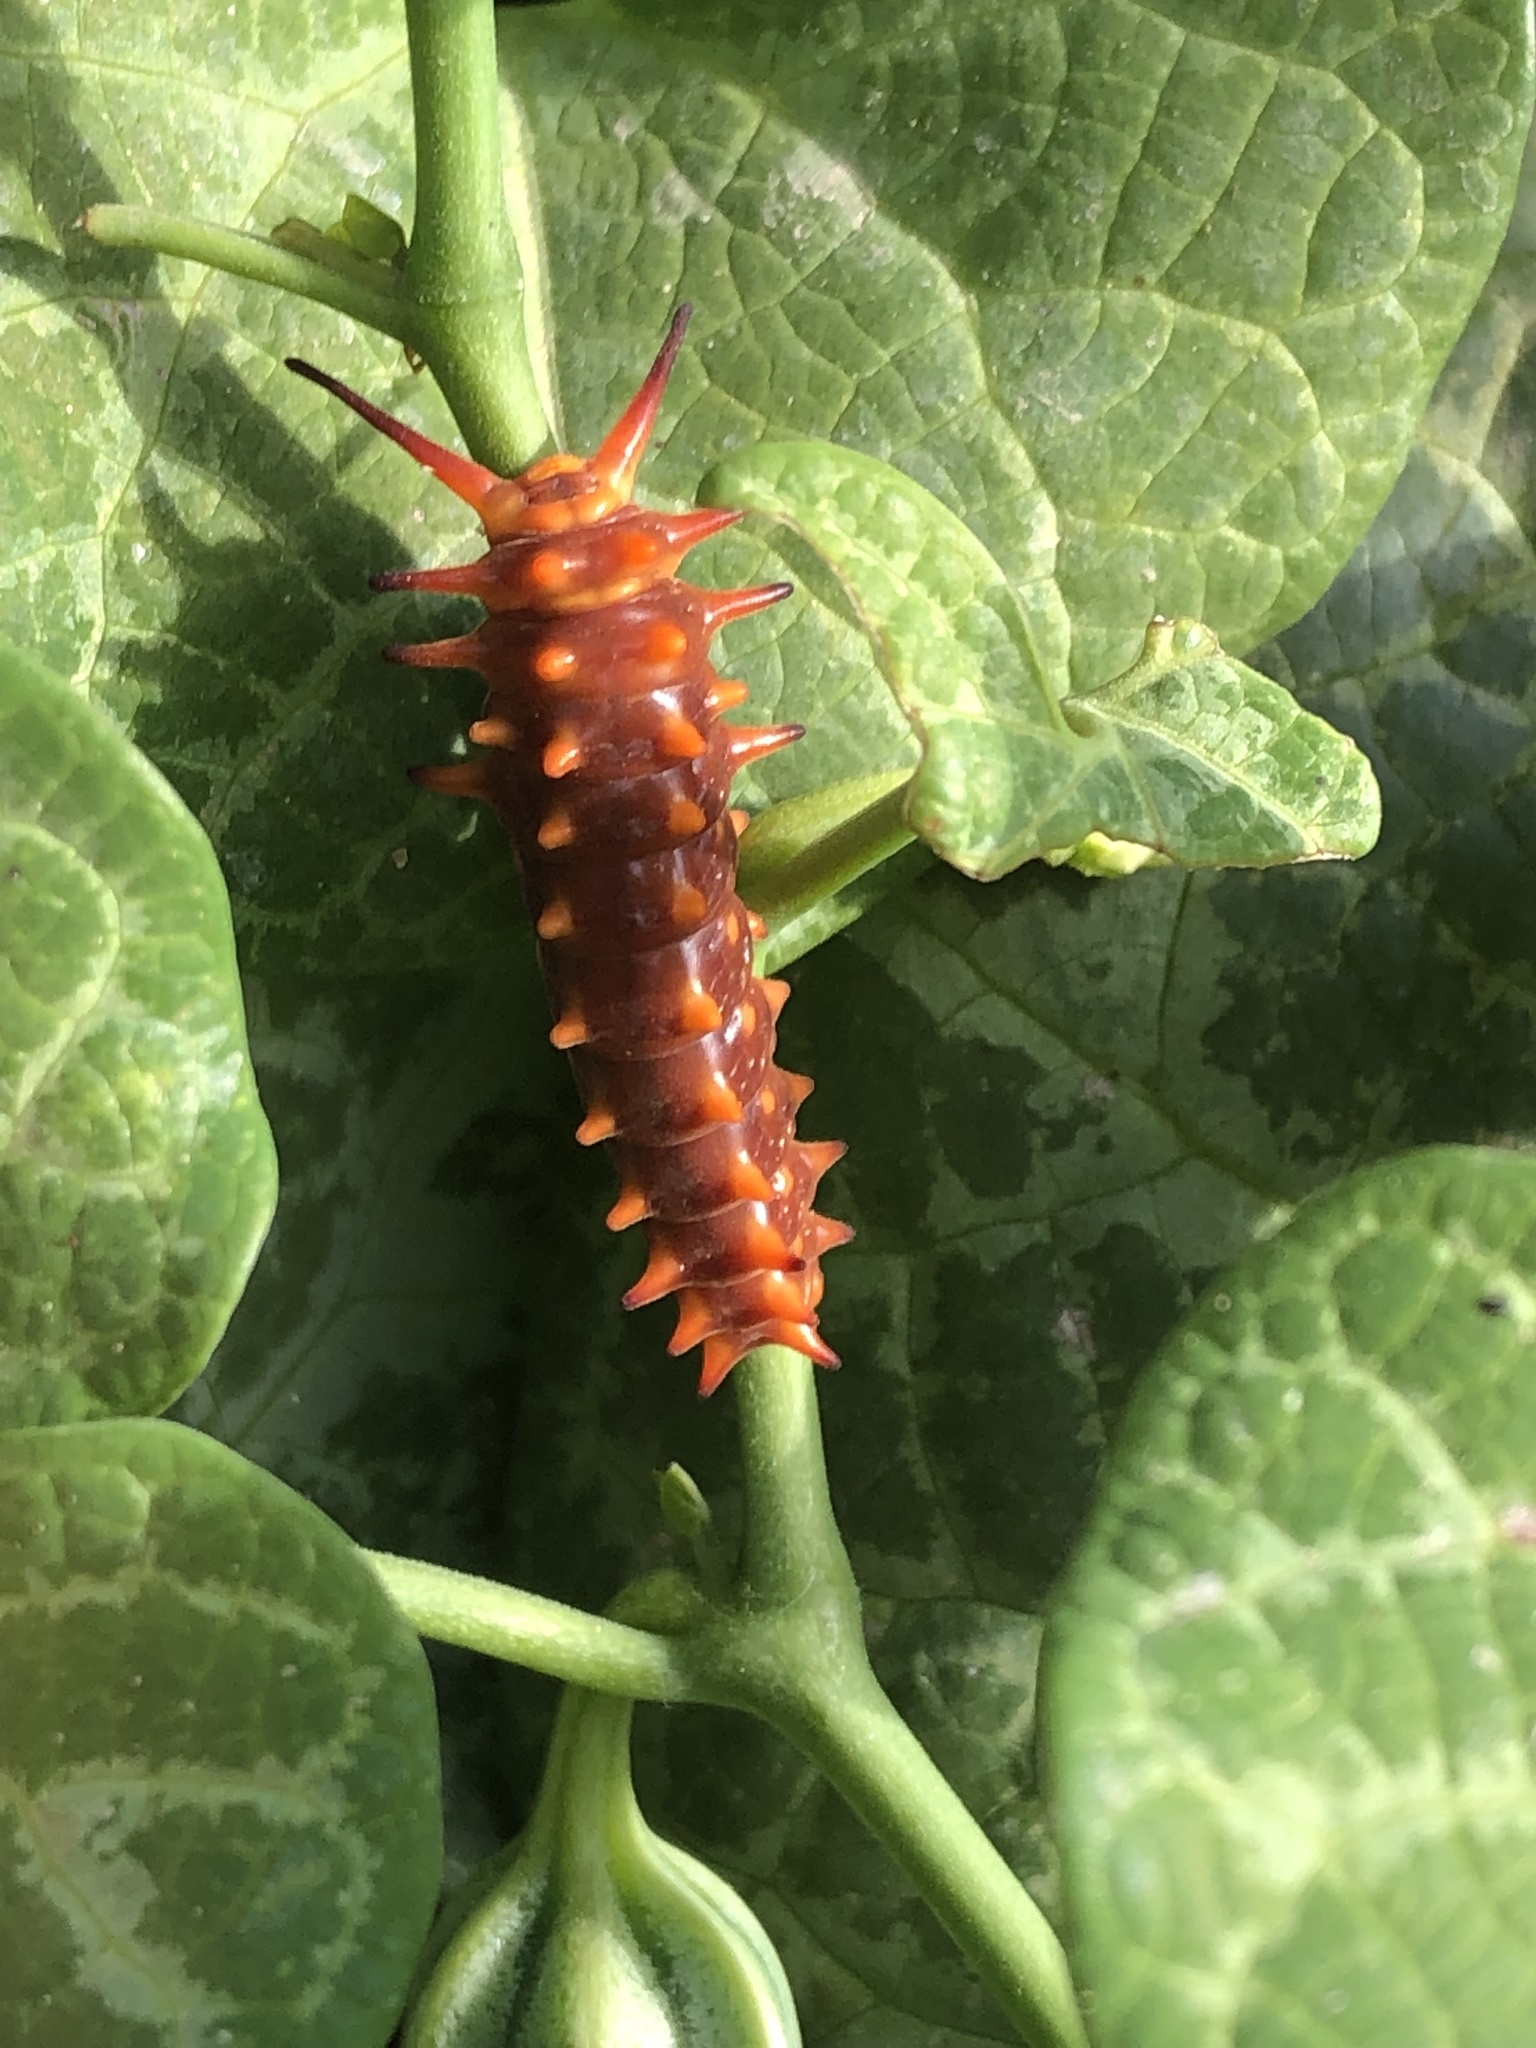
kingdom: Animalia
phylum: Arthropoda
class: Insecta
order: Lepidoptera
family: Papilionidae
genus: Battus
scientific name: Battus philenor
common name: Pipevine swallowtail
